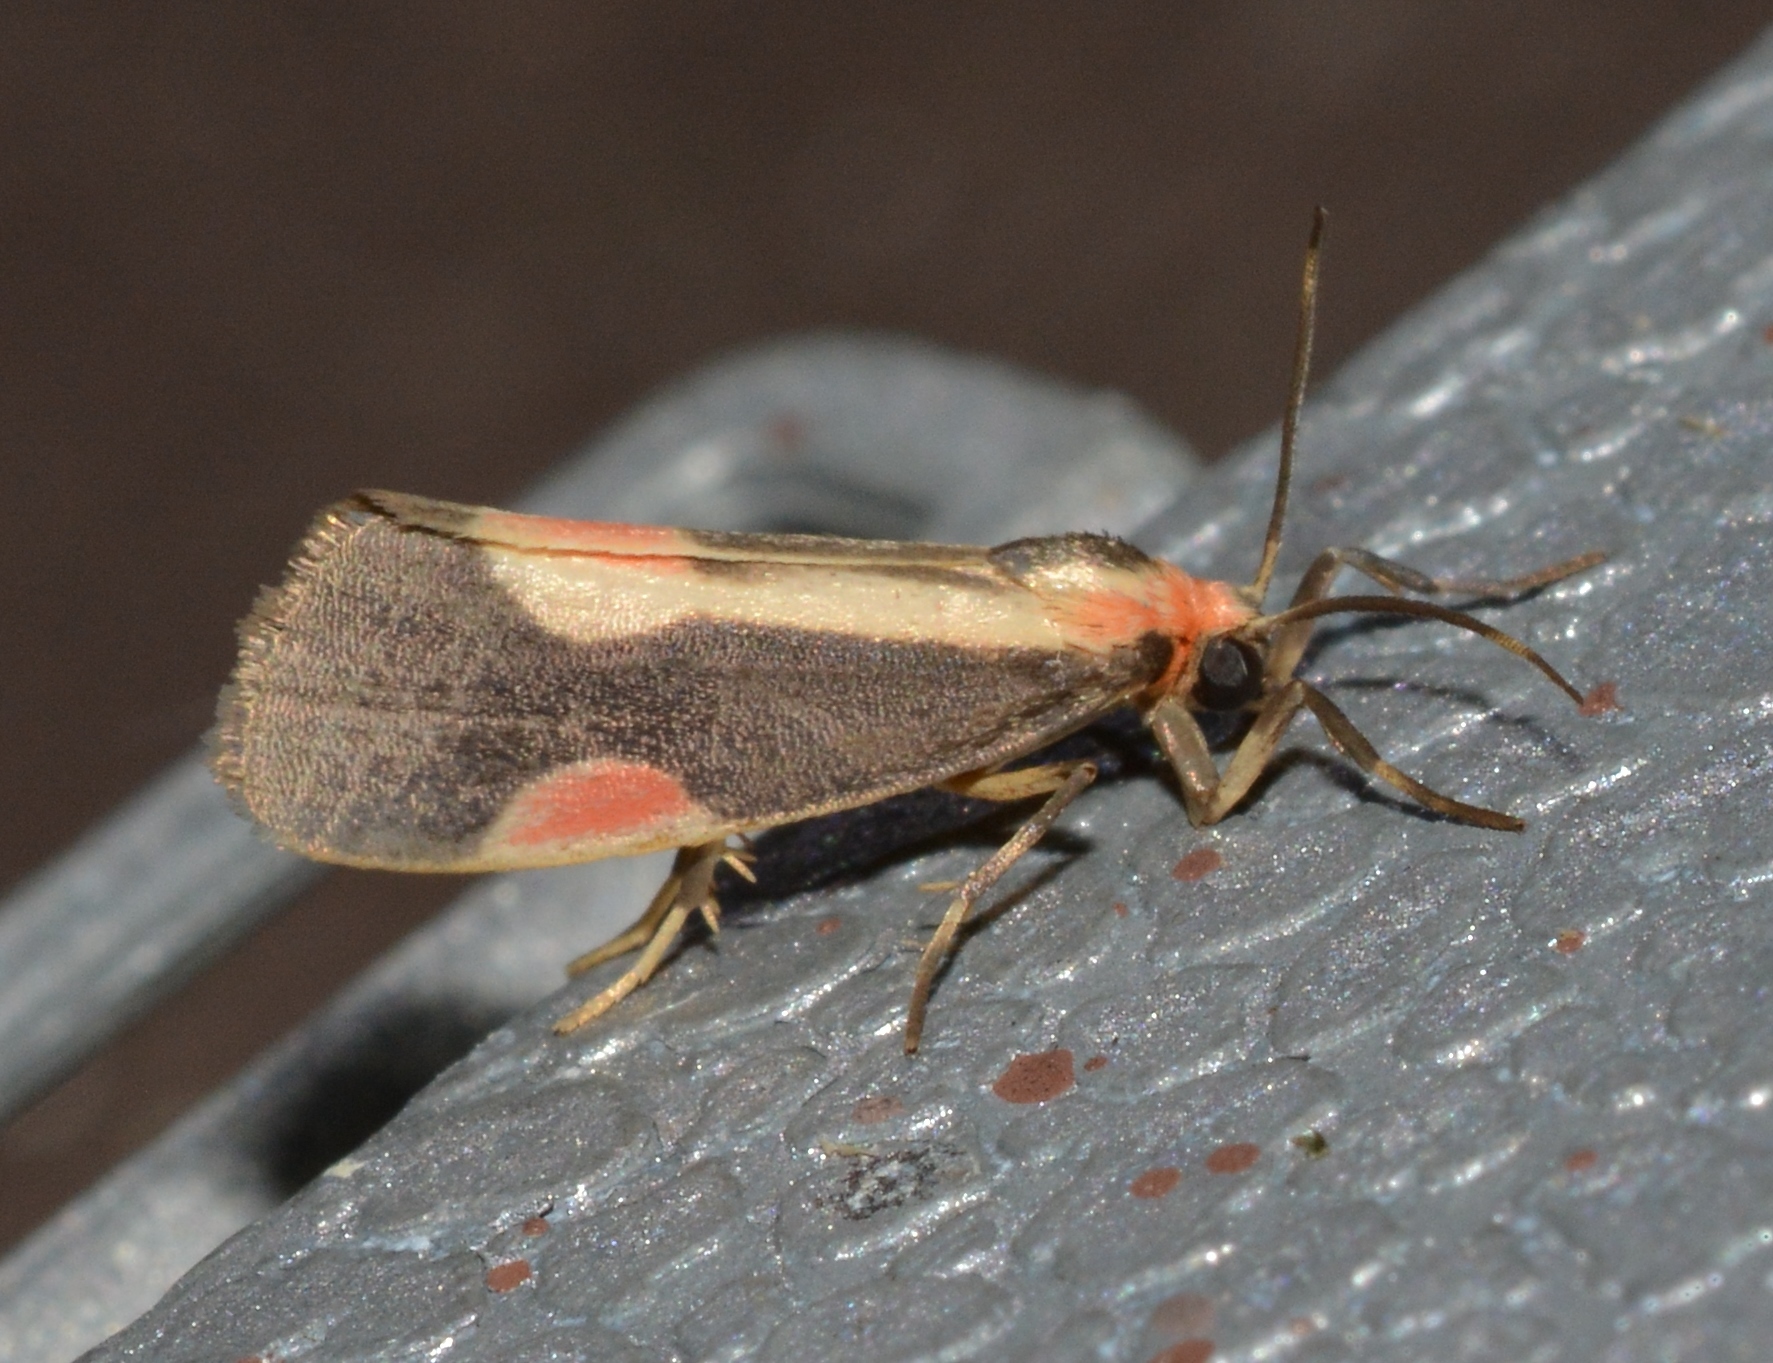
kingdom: Animalia
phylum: Arthropoda
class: Insecta
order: Lepidoptera
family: Erebidae
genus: Cisthene
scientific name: Cisthene packardii
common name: Packard's lichen moth
